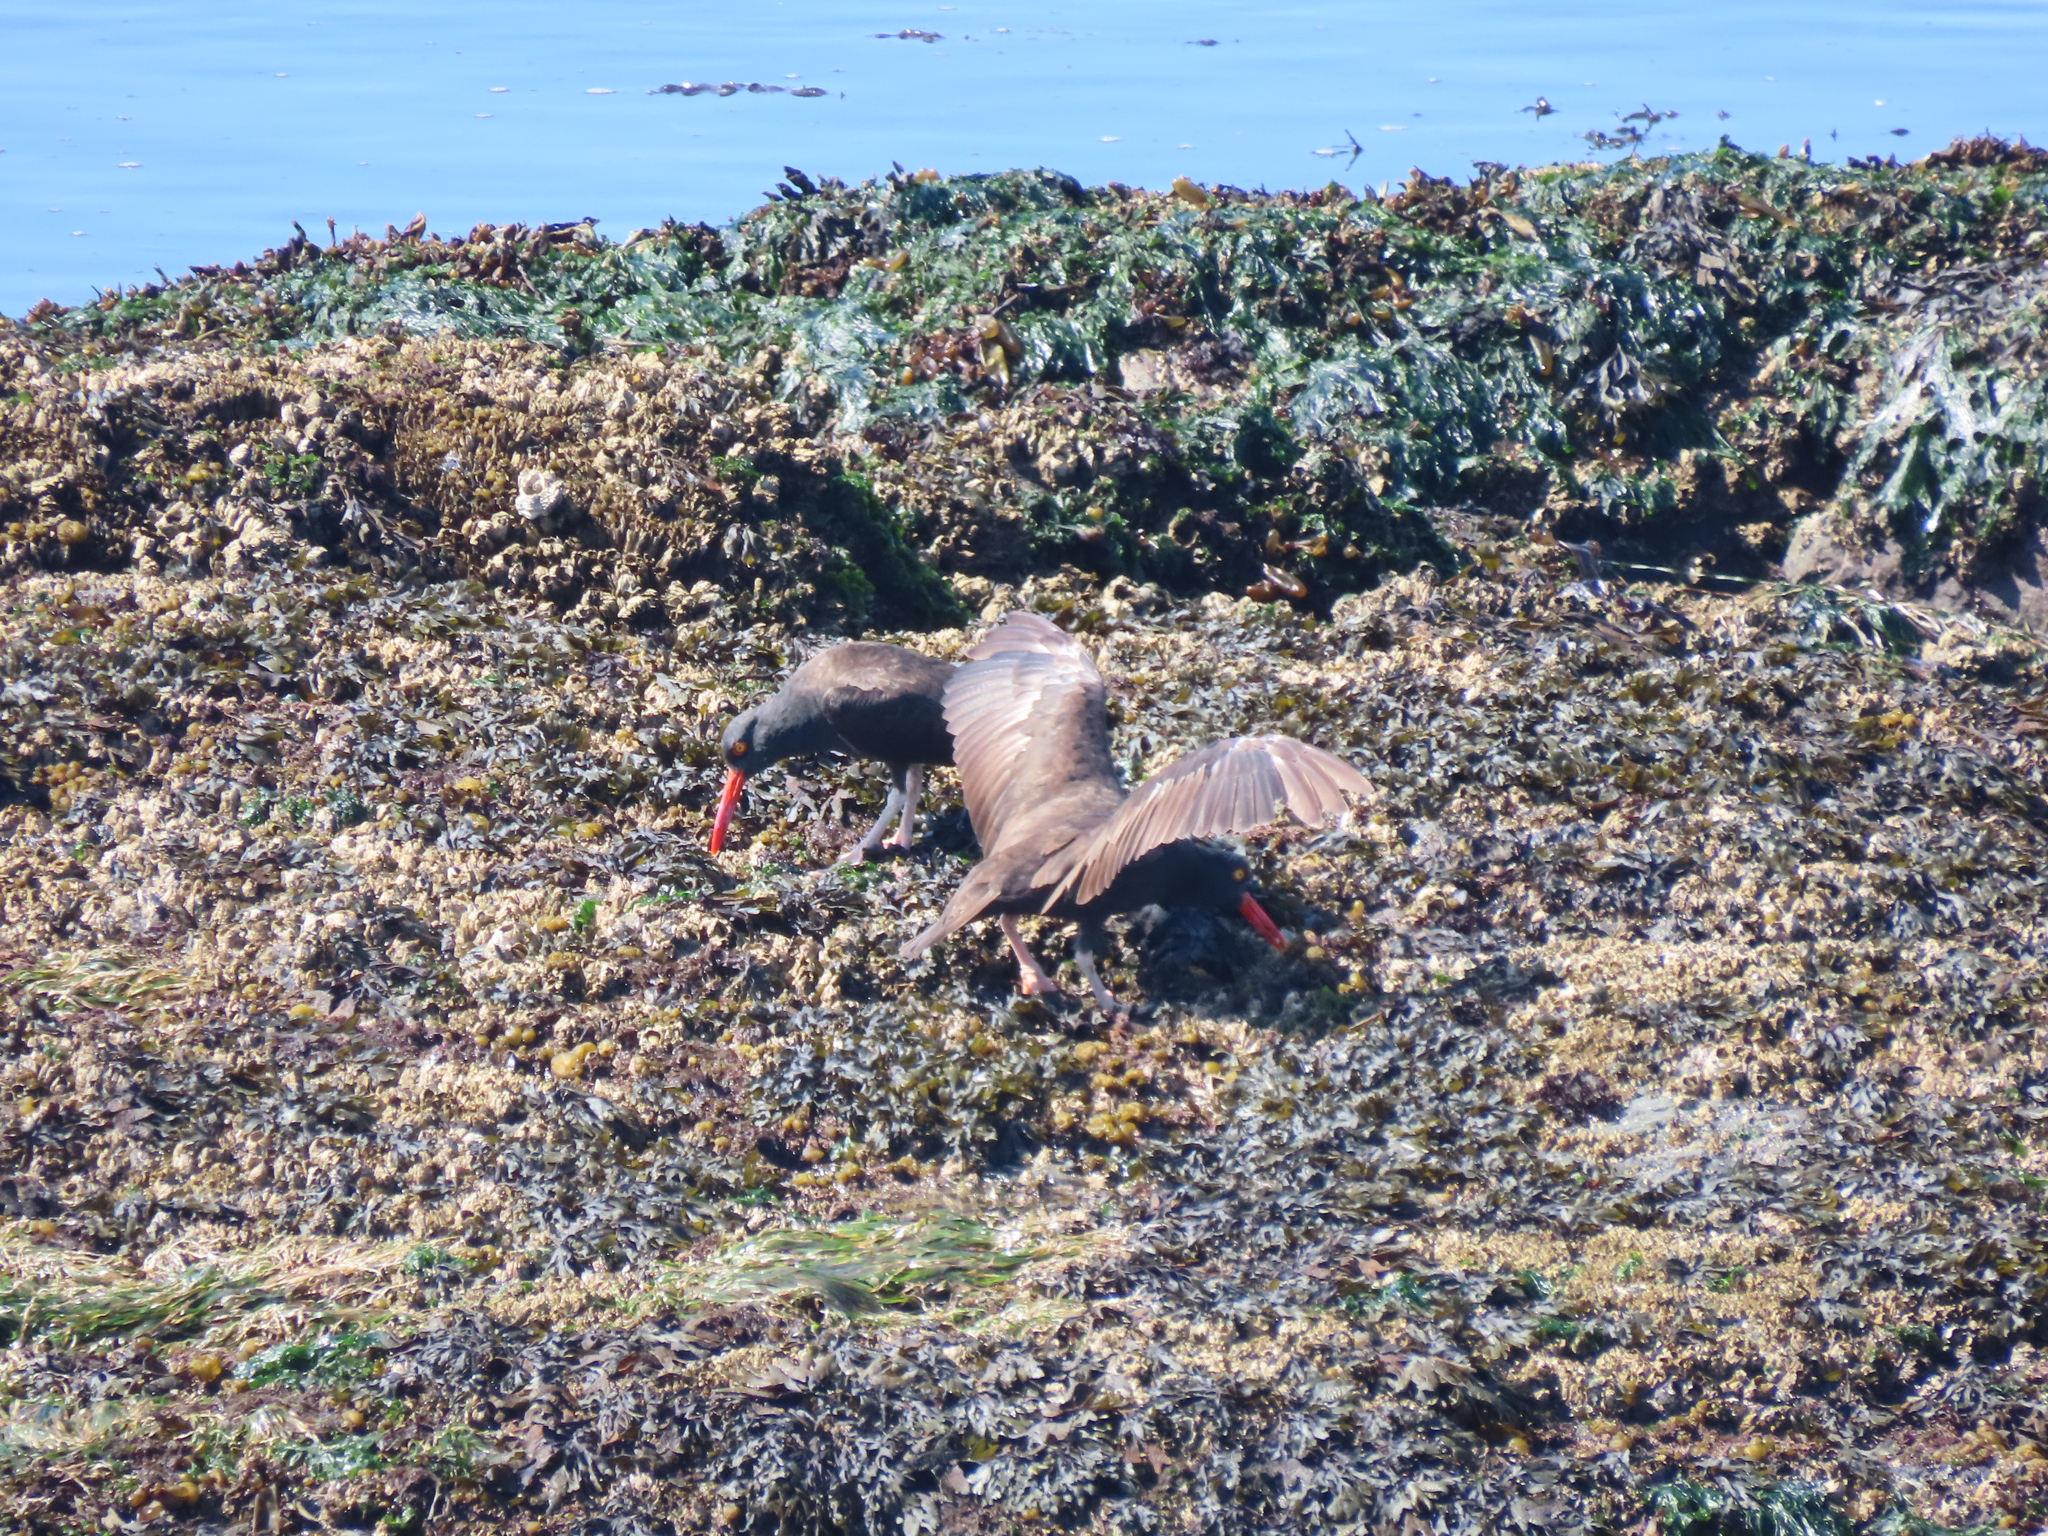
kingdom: Animalia
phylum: Chordata
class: Aves
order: Charadriiformes
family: Haematopodidae
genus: Haematopus
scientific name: Haematopus bachmani
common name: Black oystercatcher
